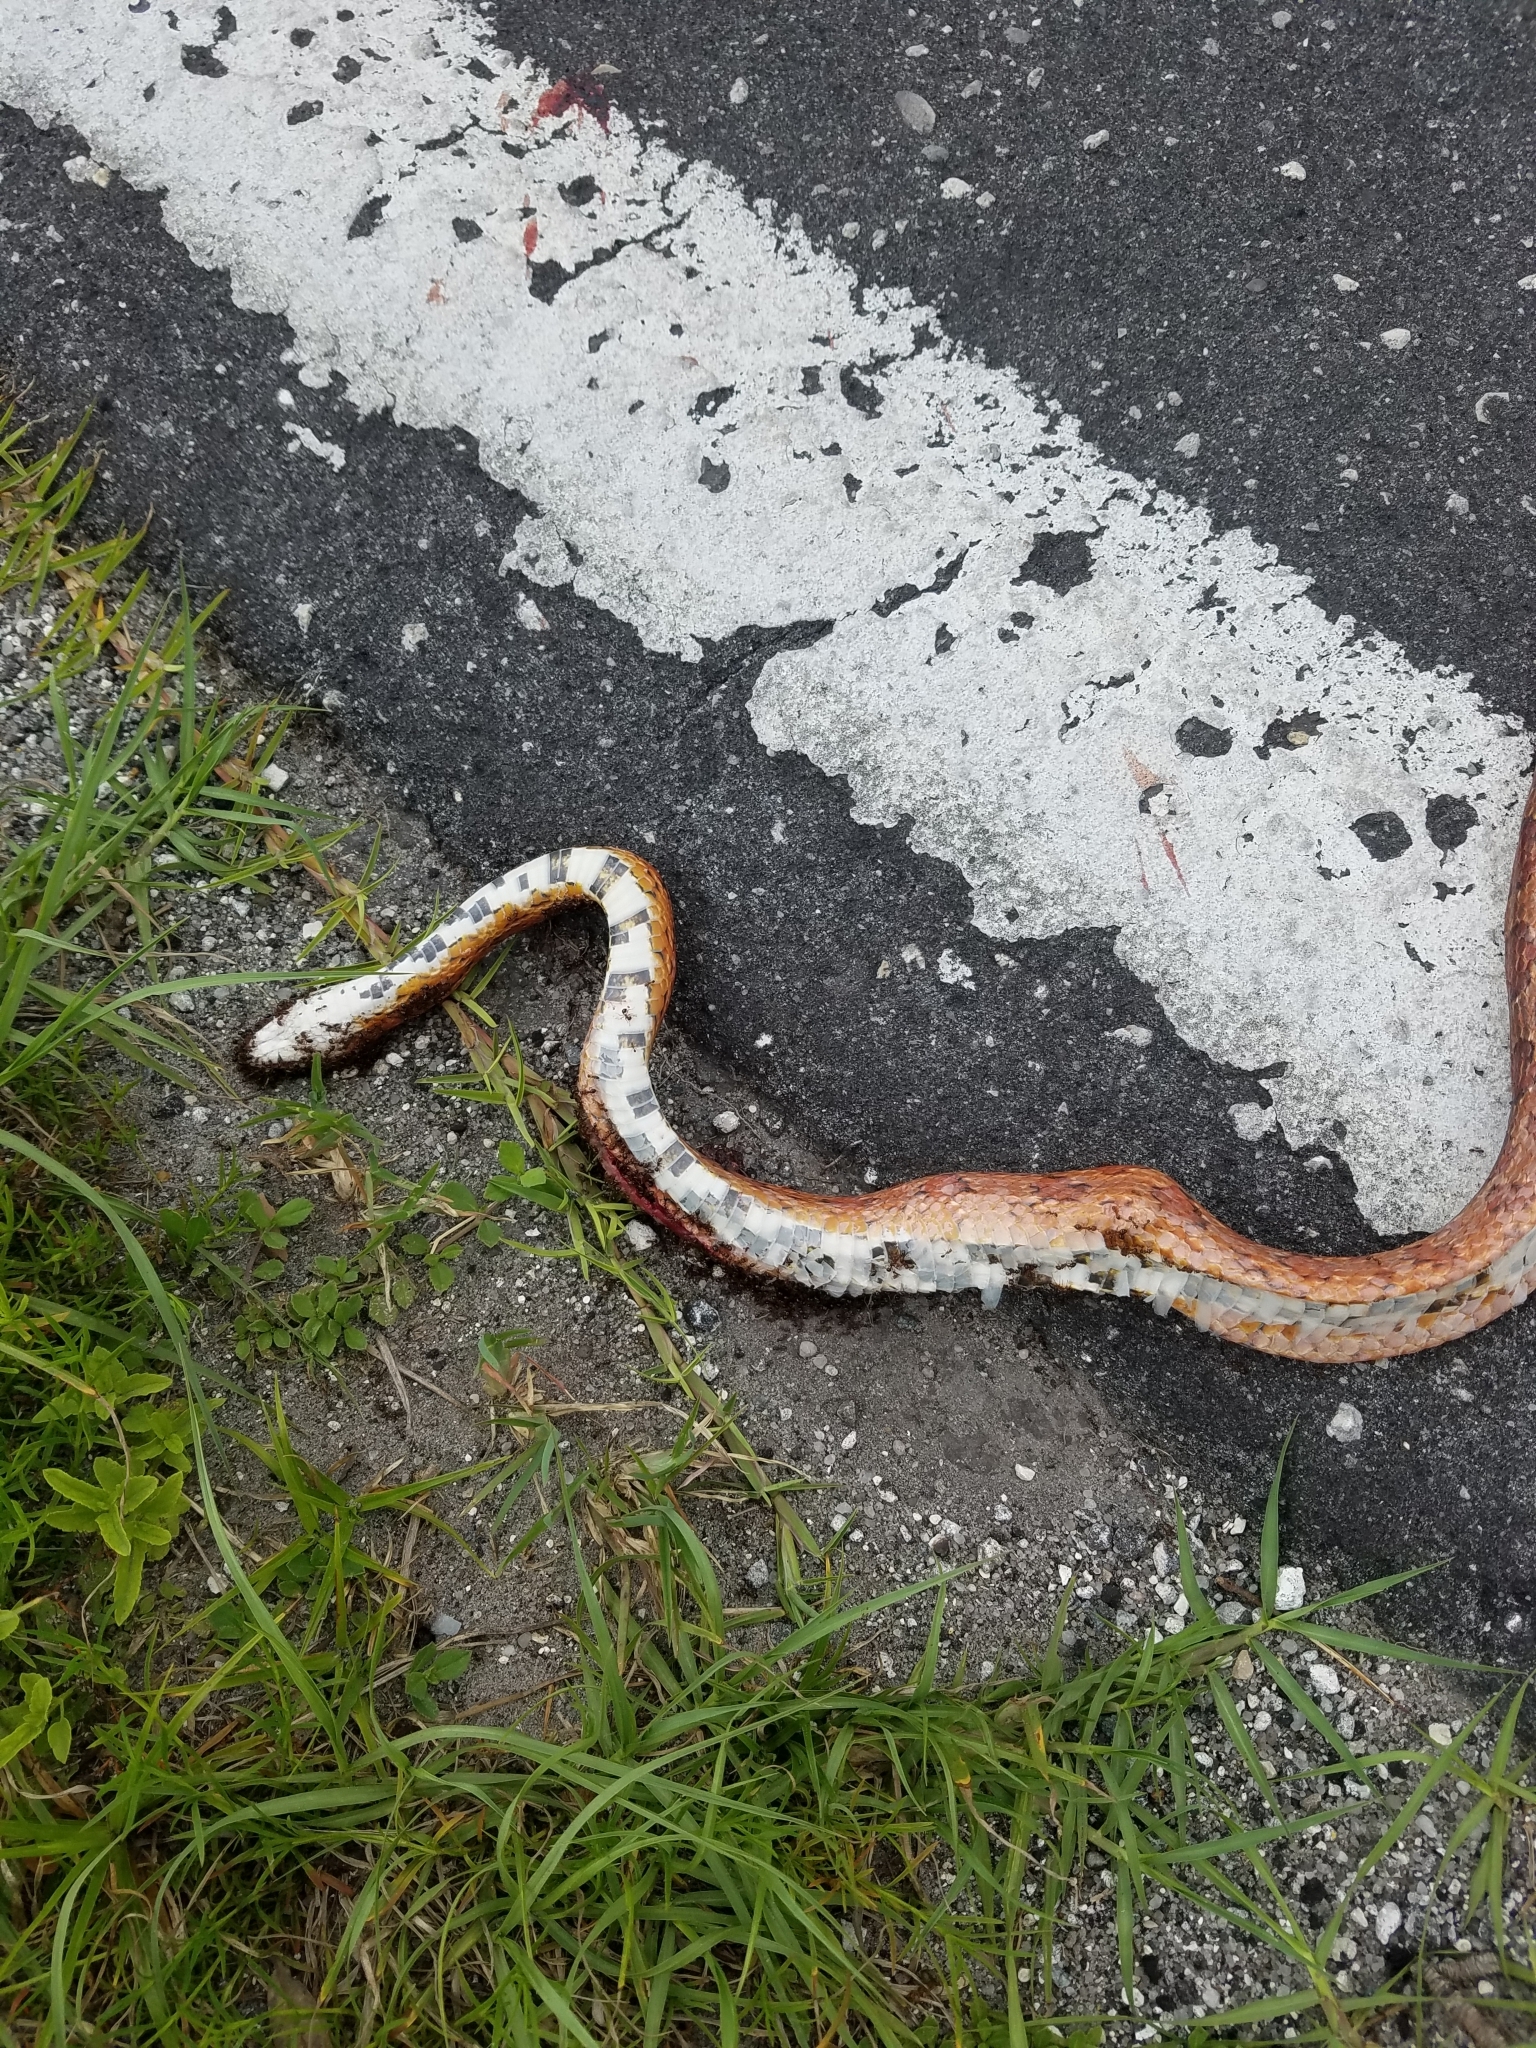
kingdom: Animalia
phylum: Chordata
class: Squamata
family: Colubridae
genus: Pantherophis
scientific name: Pantherophis guttatus
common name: Red cornsnake
